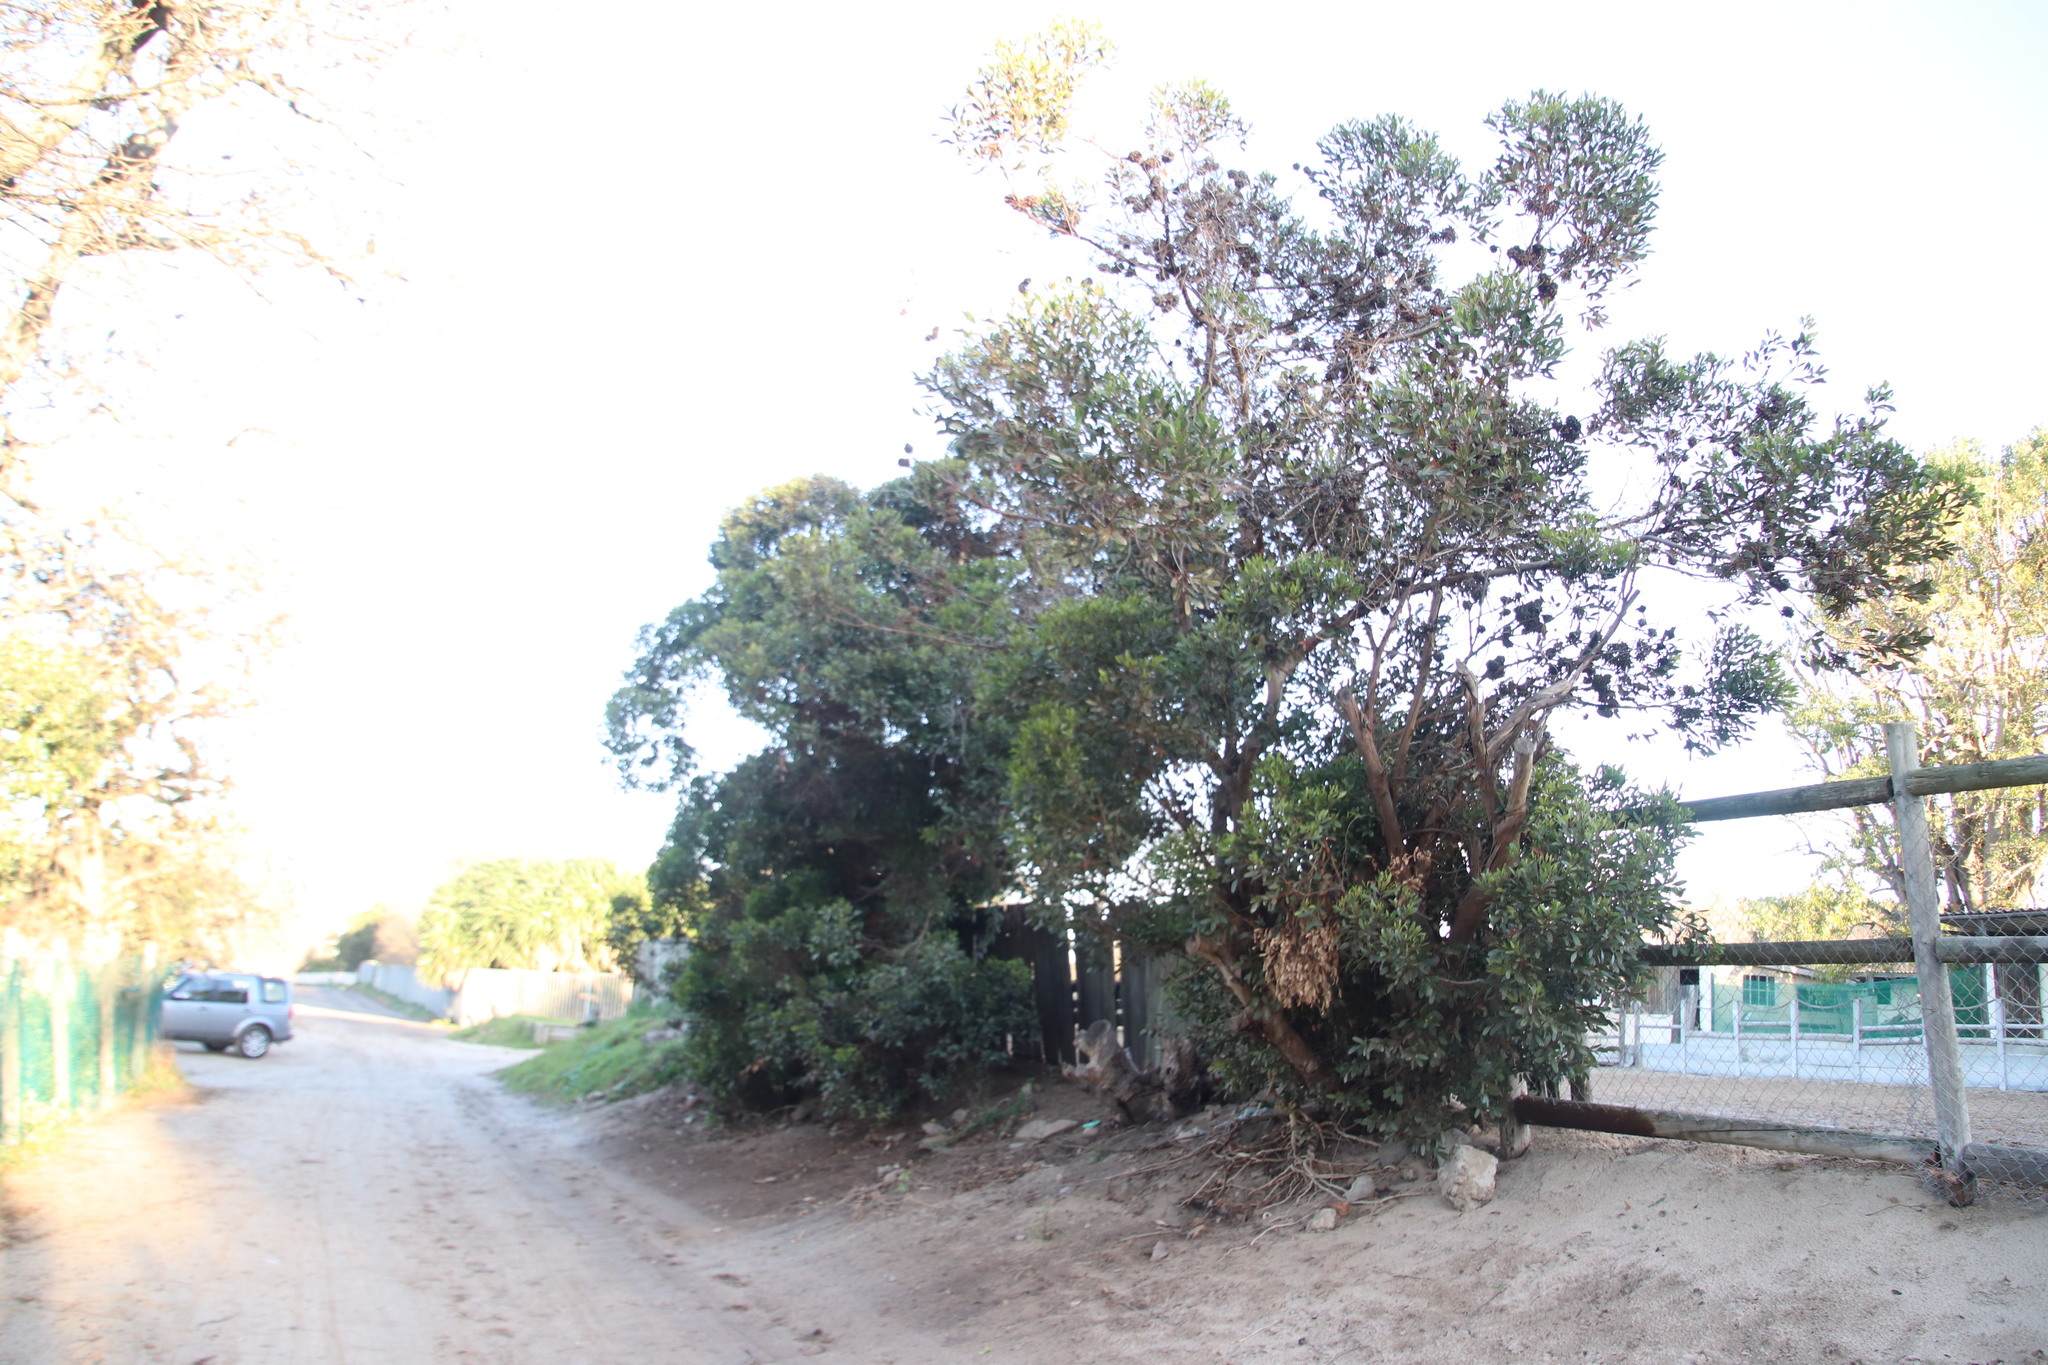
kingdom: Plantae
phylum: Tracheophyta
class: Magnoliopsida
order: Myrtales
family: Myrtaceae
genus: Eucalyptus
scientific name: Eucalyptus conferruminata
